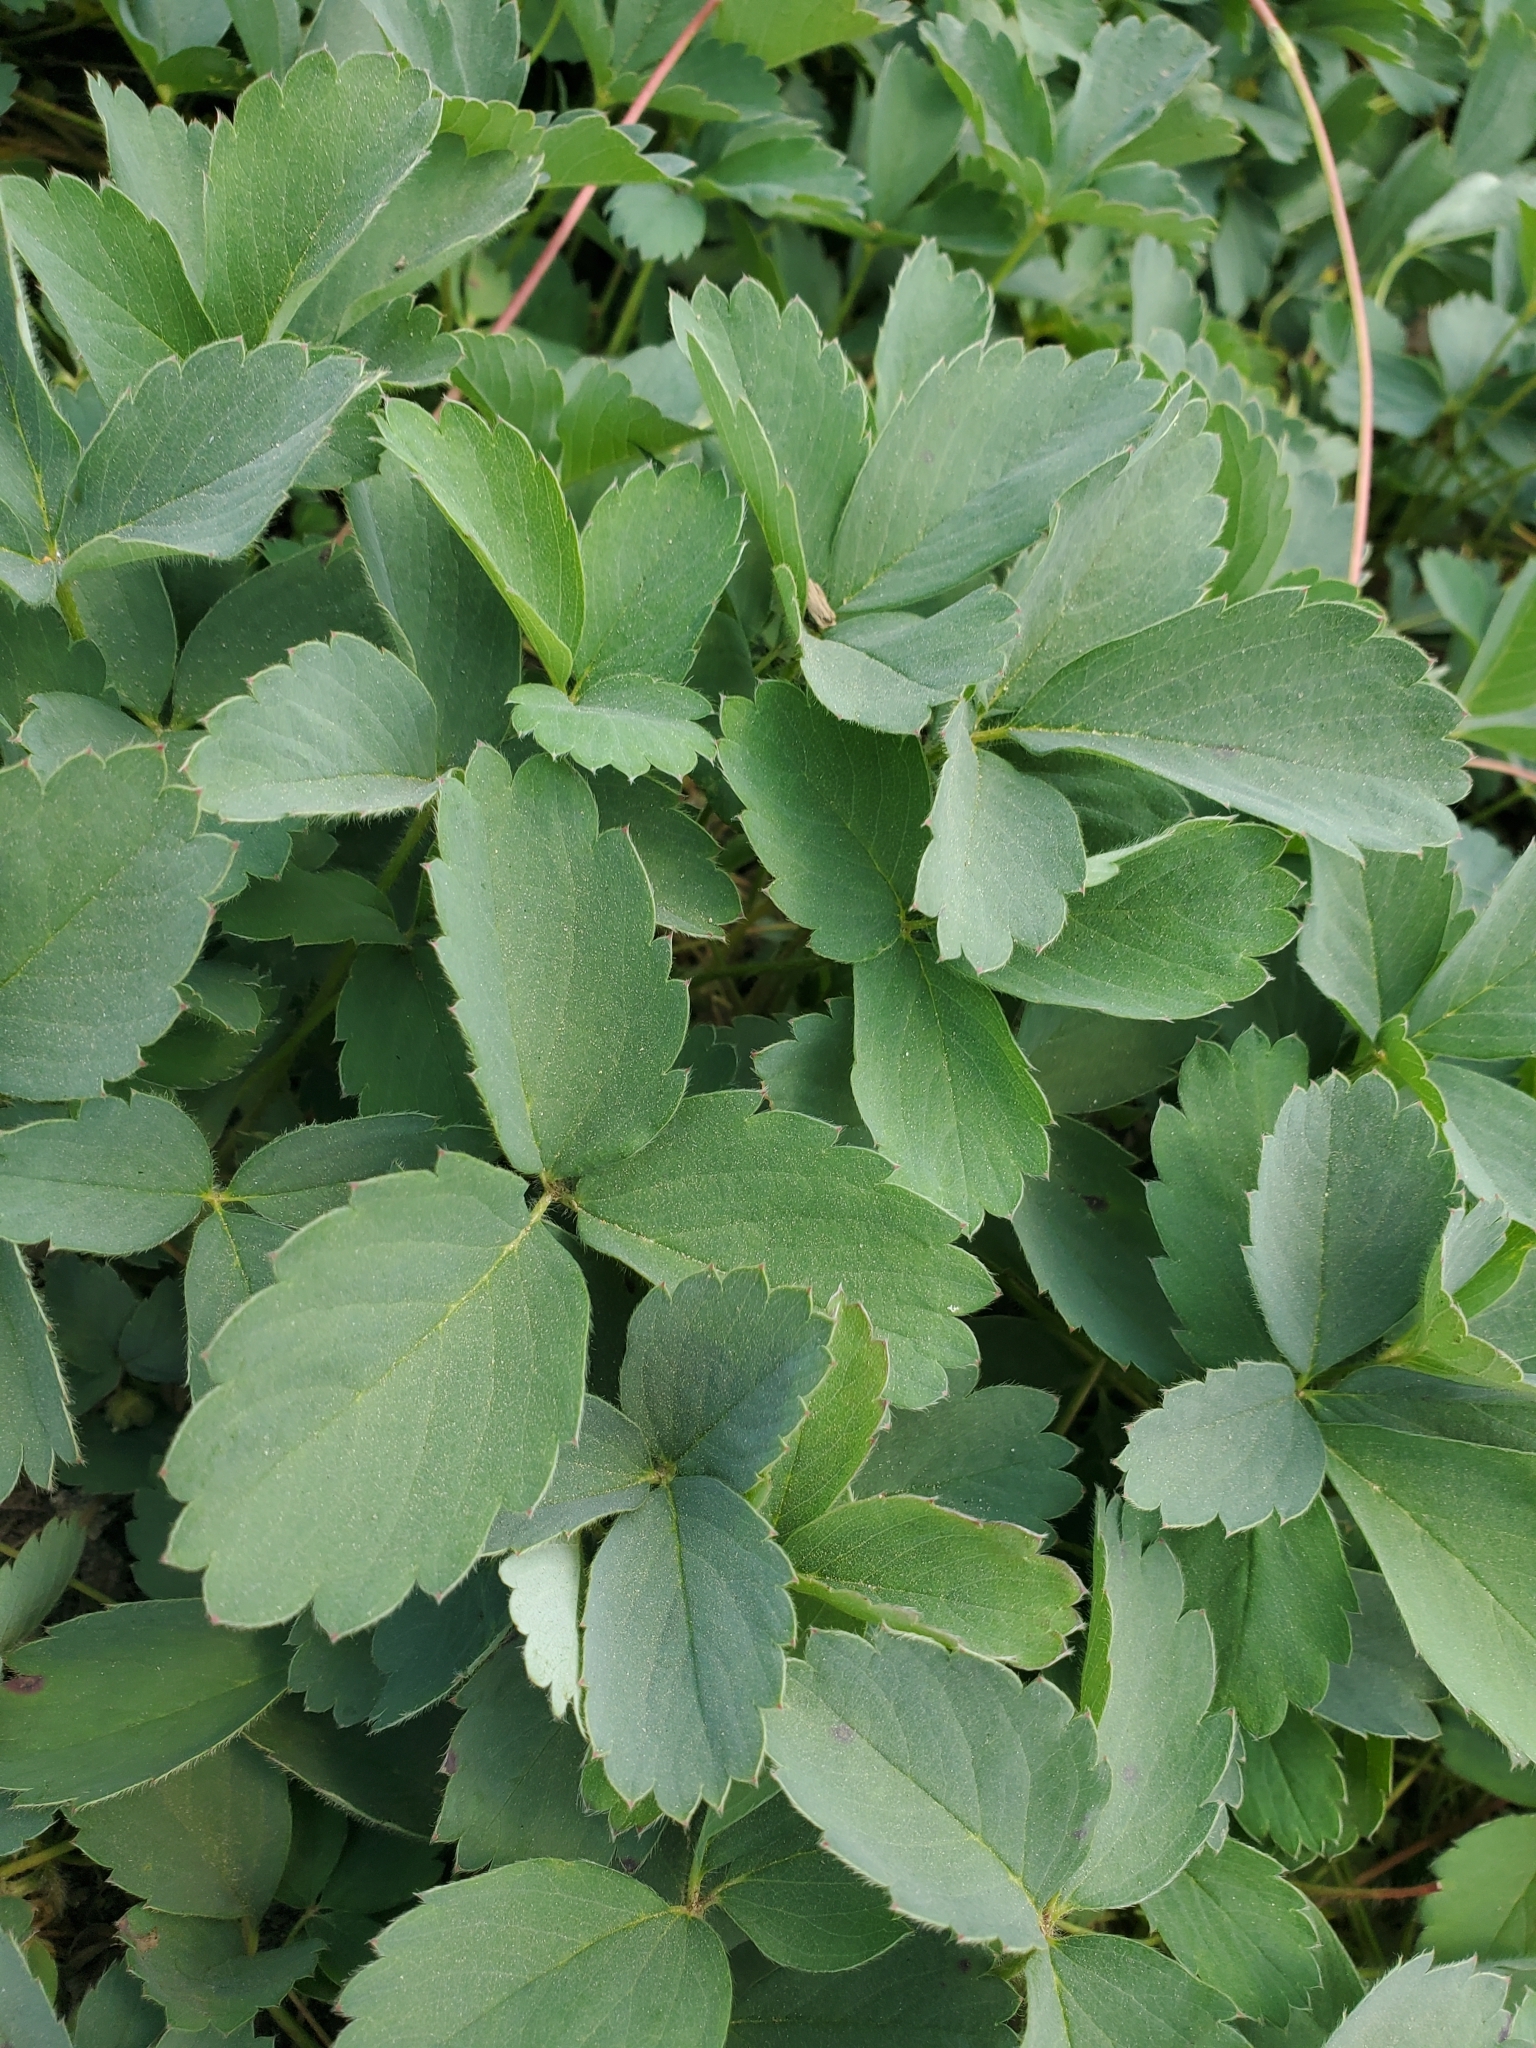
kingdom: Plantae
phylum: Tracheophyta
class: Magnoliopsida
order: Rosales
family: Rosaceae
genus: Potentilla
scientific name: Potentilla flabellifolia
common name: Mount rainier cinquefoil
